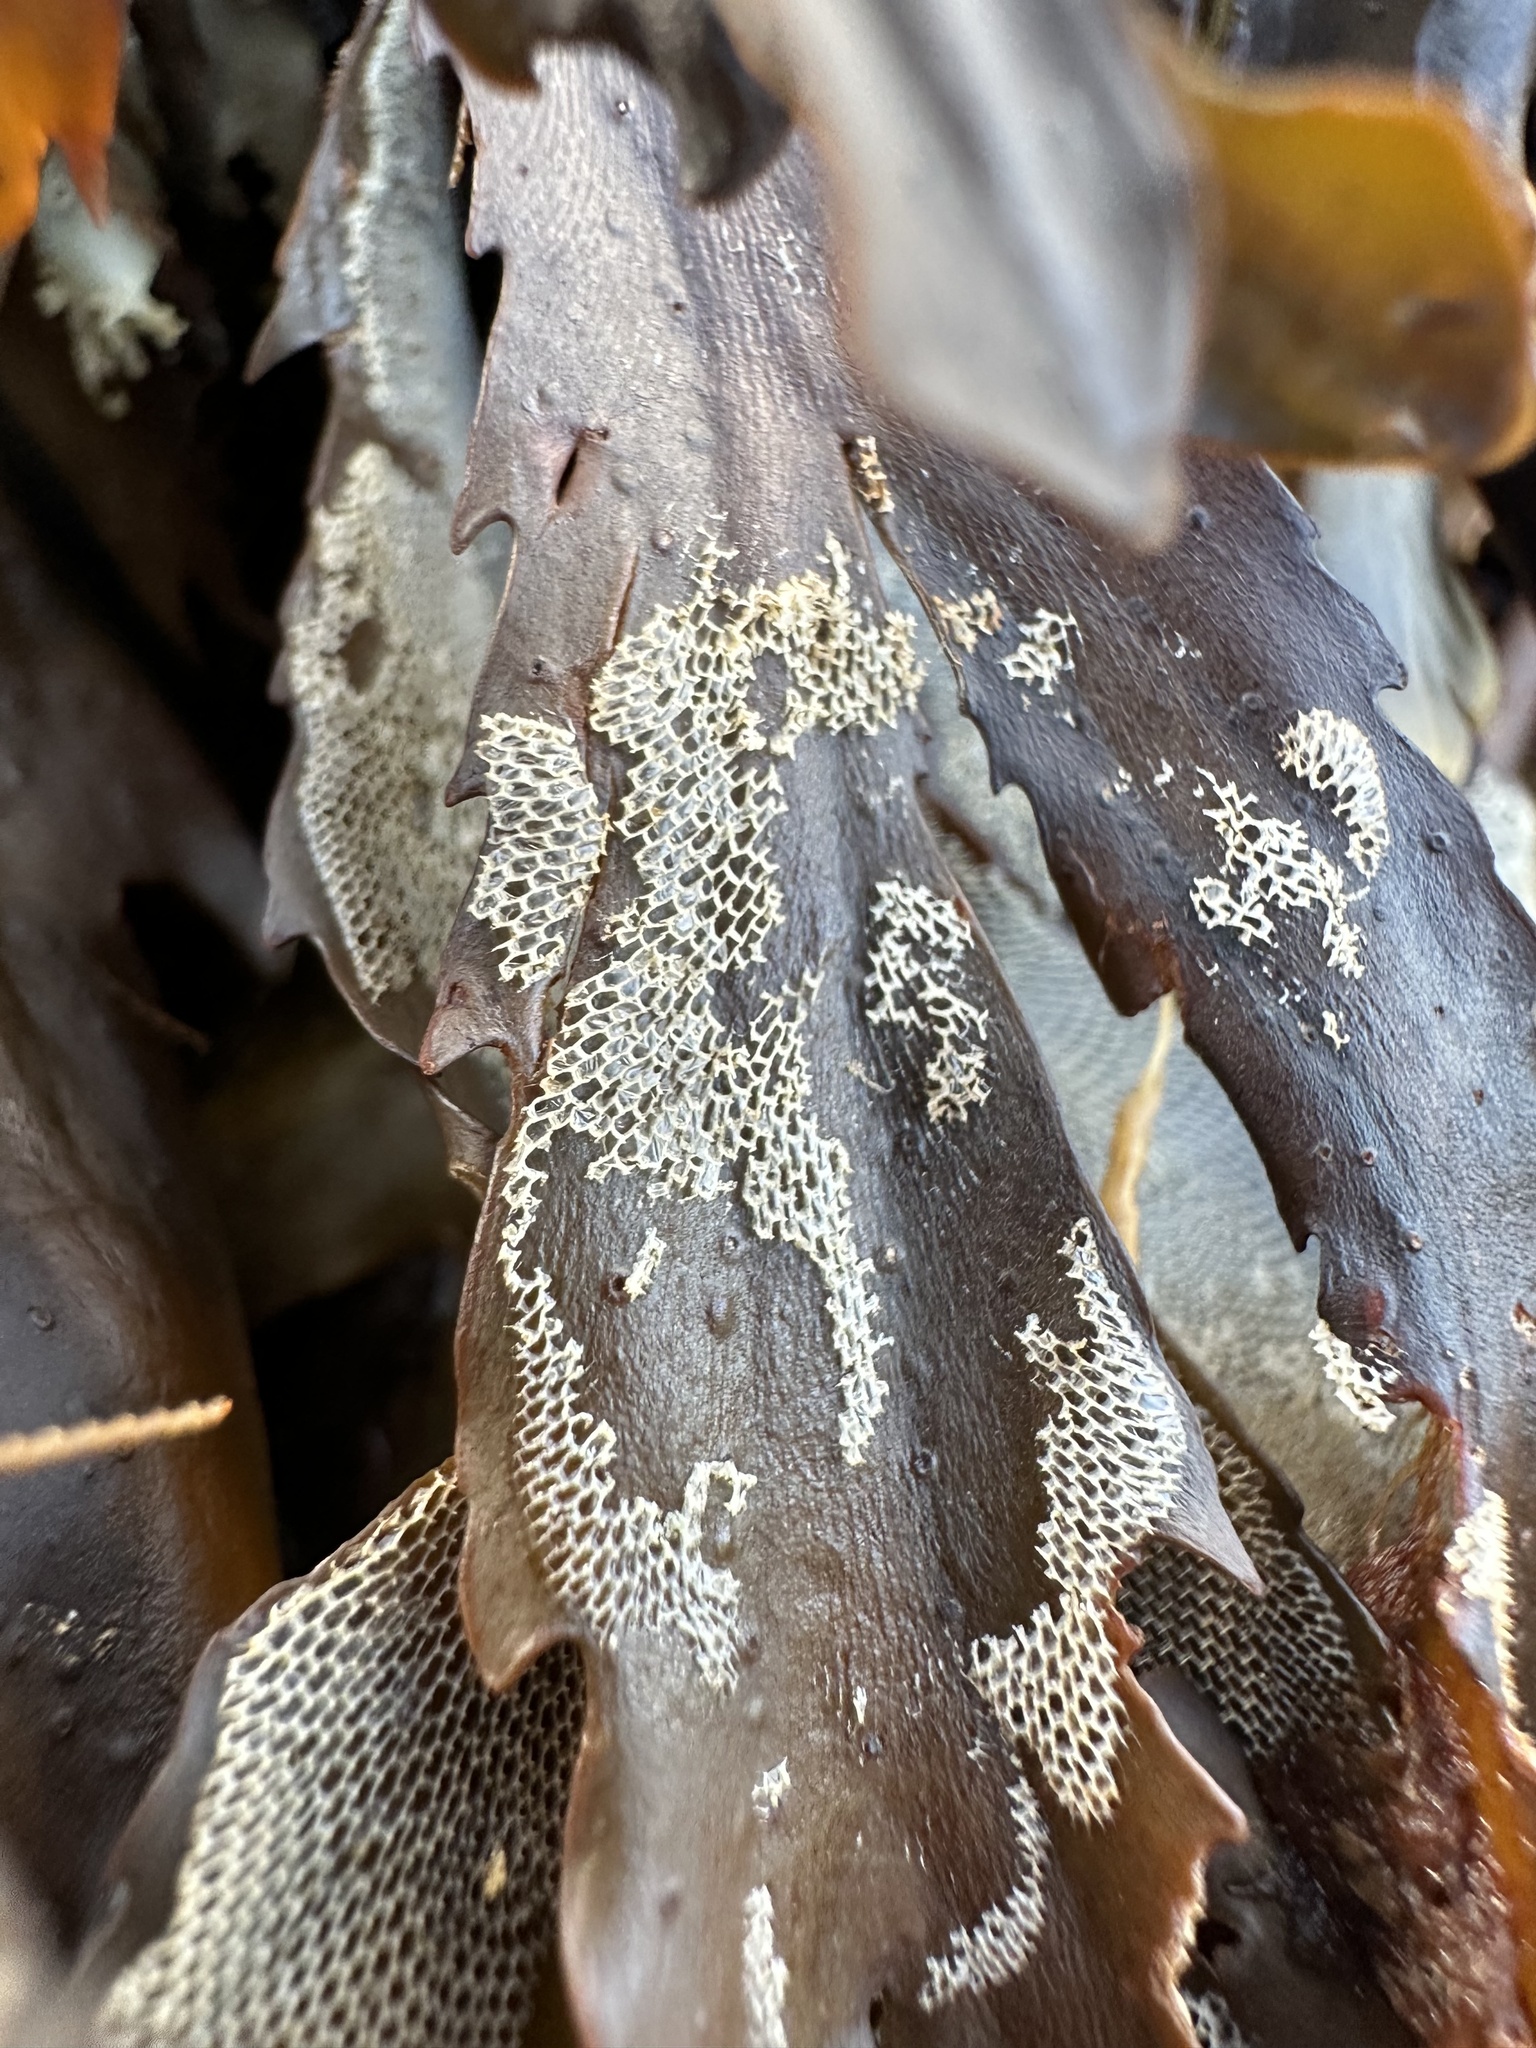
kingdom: Animalia
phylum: Bryozoa
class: Gymnolaemata
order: Cheilostomatida
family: Membraniporidae
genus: Membranipora
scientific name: Membranipora membranacea
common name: Sea mat
